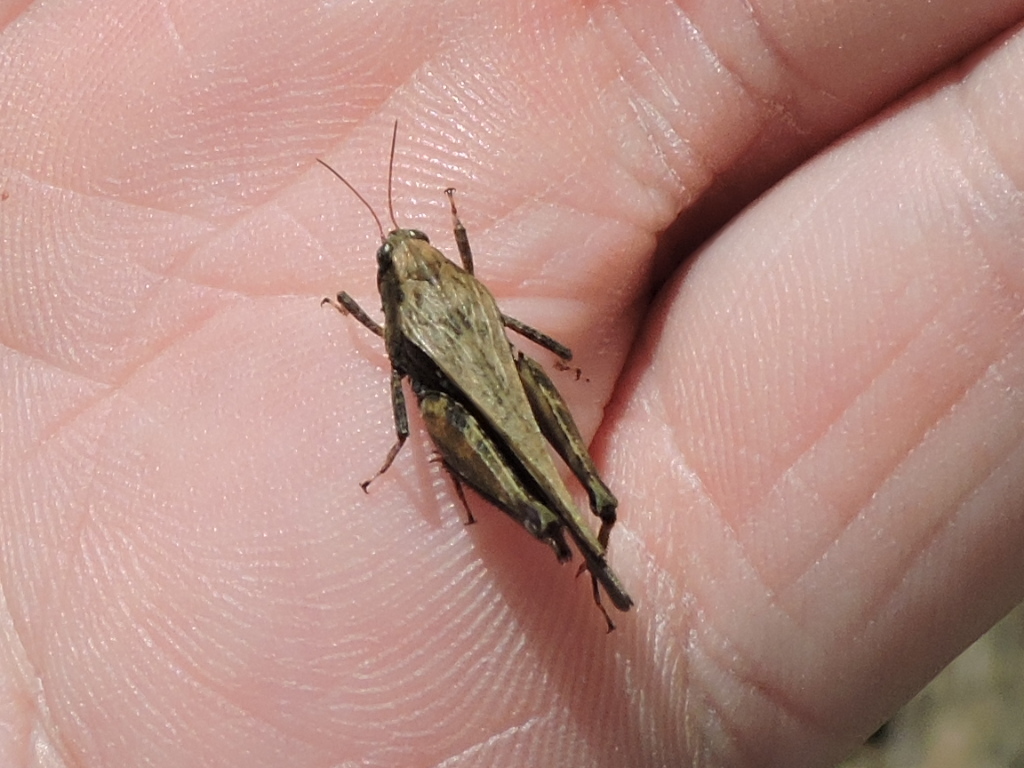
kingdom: Animalia
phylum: Arthropoda
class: Insecta
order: Orthoptera
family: Tetrigidae
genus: Tettigidea
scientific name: Tettigidea laterale
